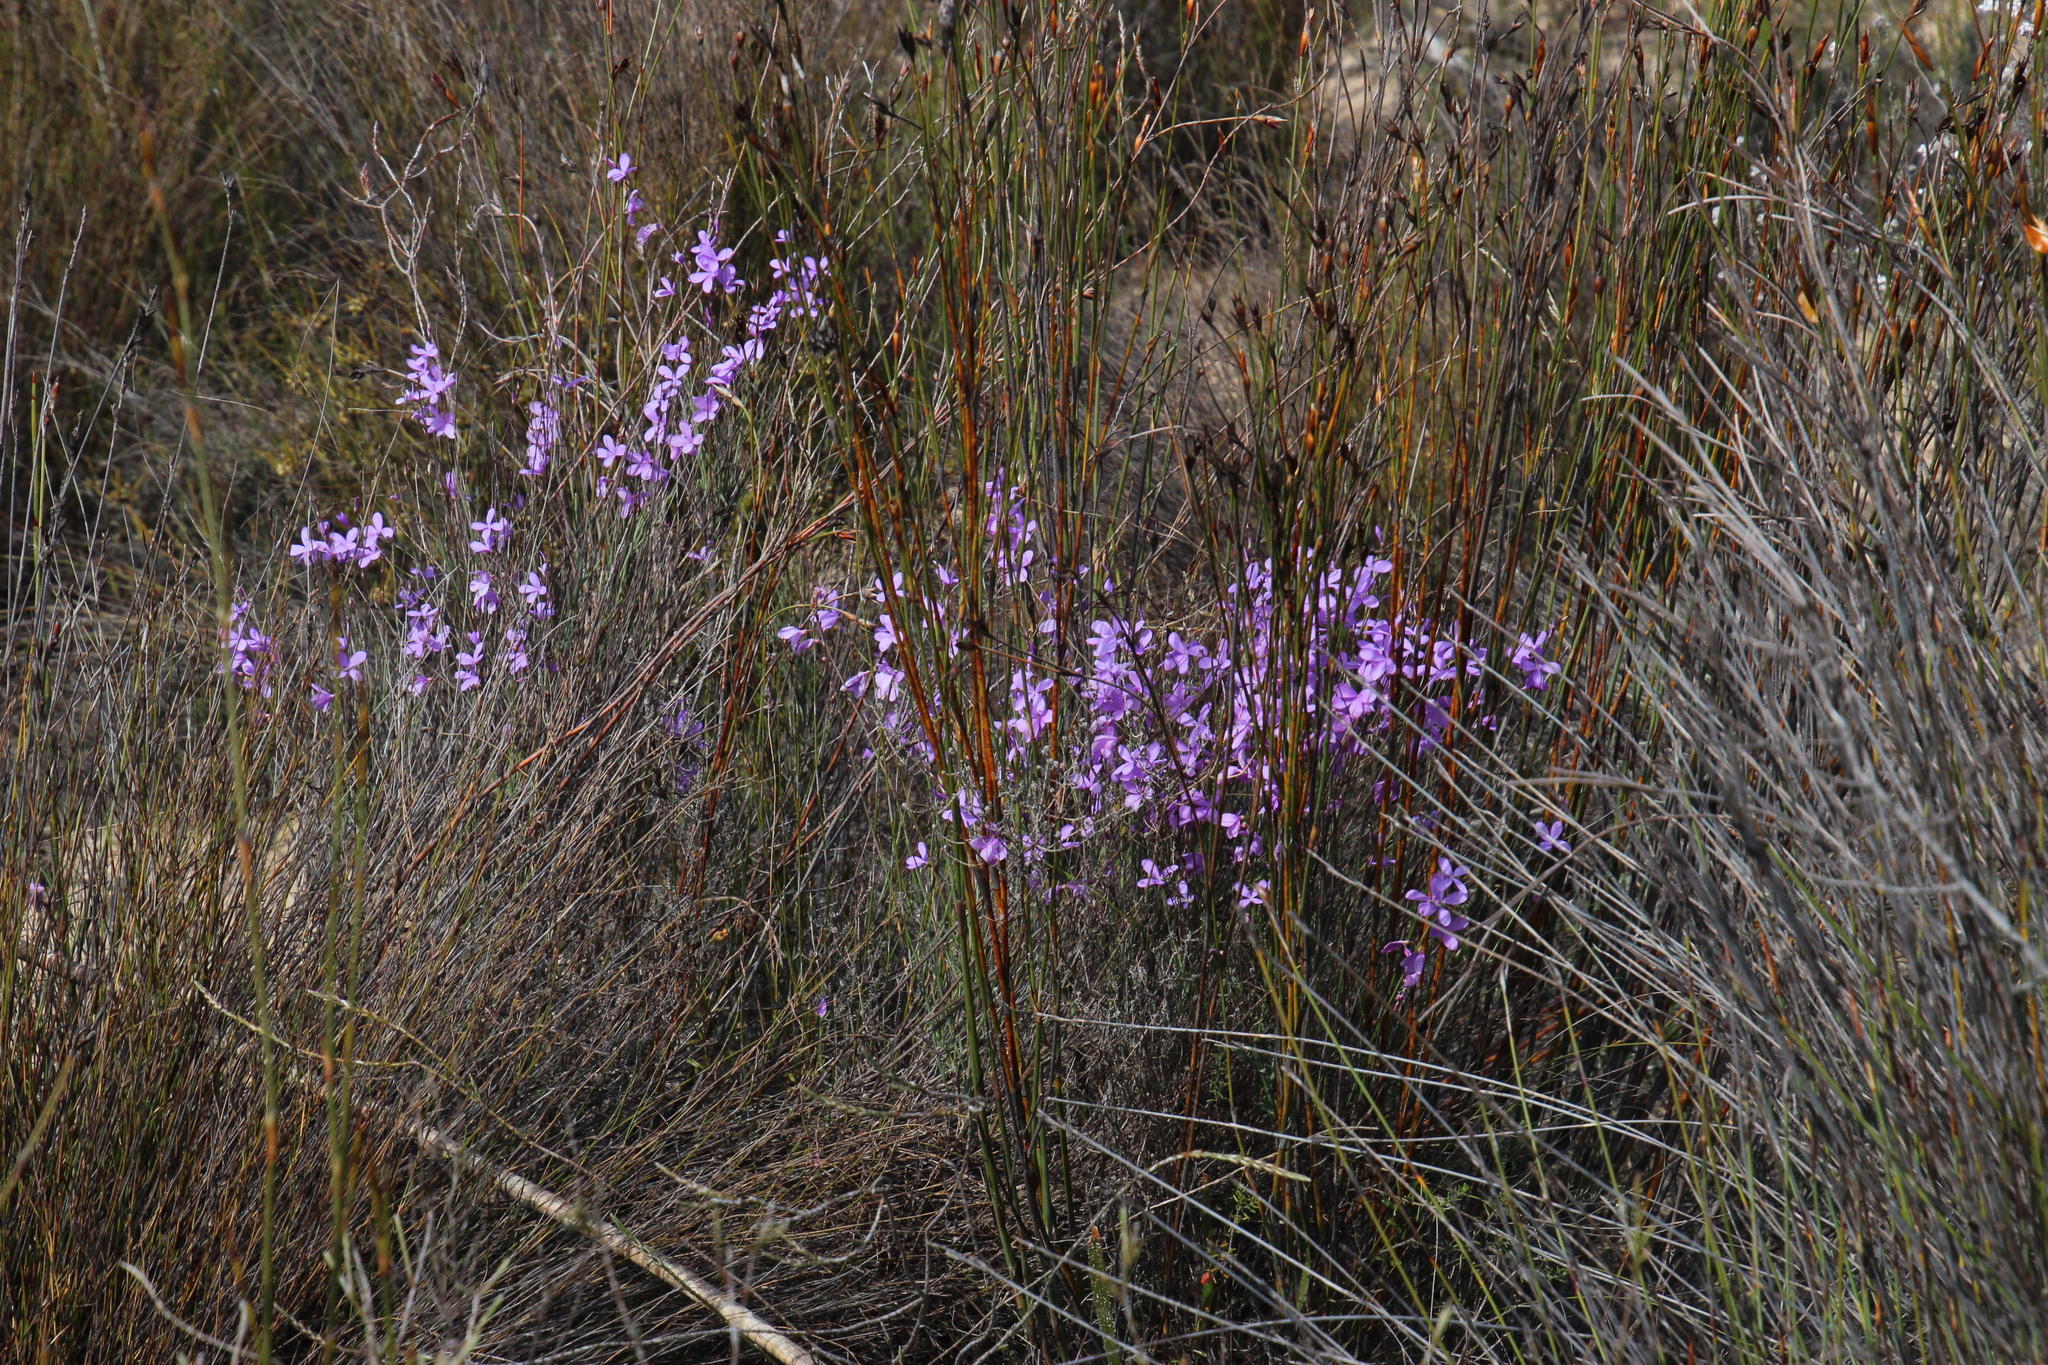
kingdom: Plantae
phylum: Tracheophyta
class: Magnoliopsida
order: Brassicales
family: Brassicaceae
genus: Heliophila
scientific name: Heliophila juncea
